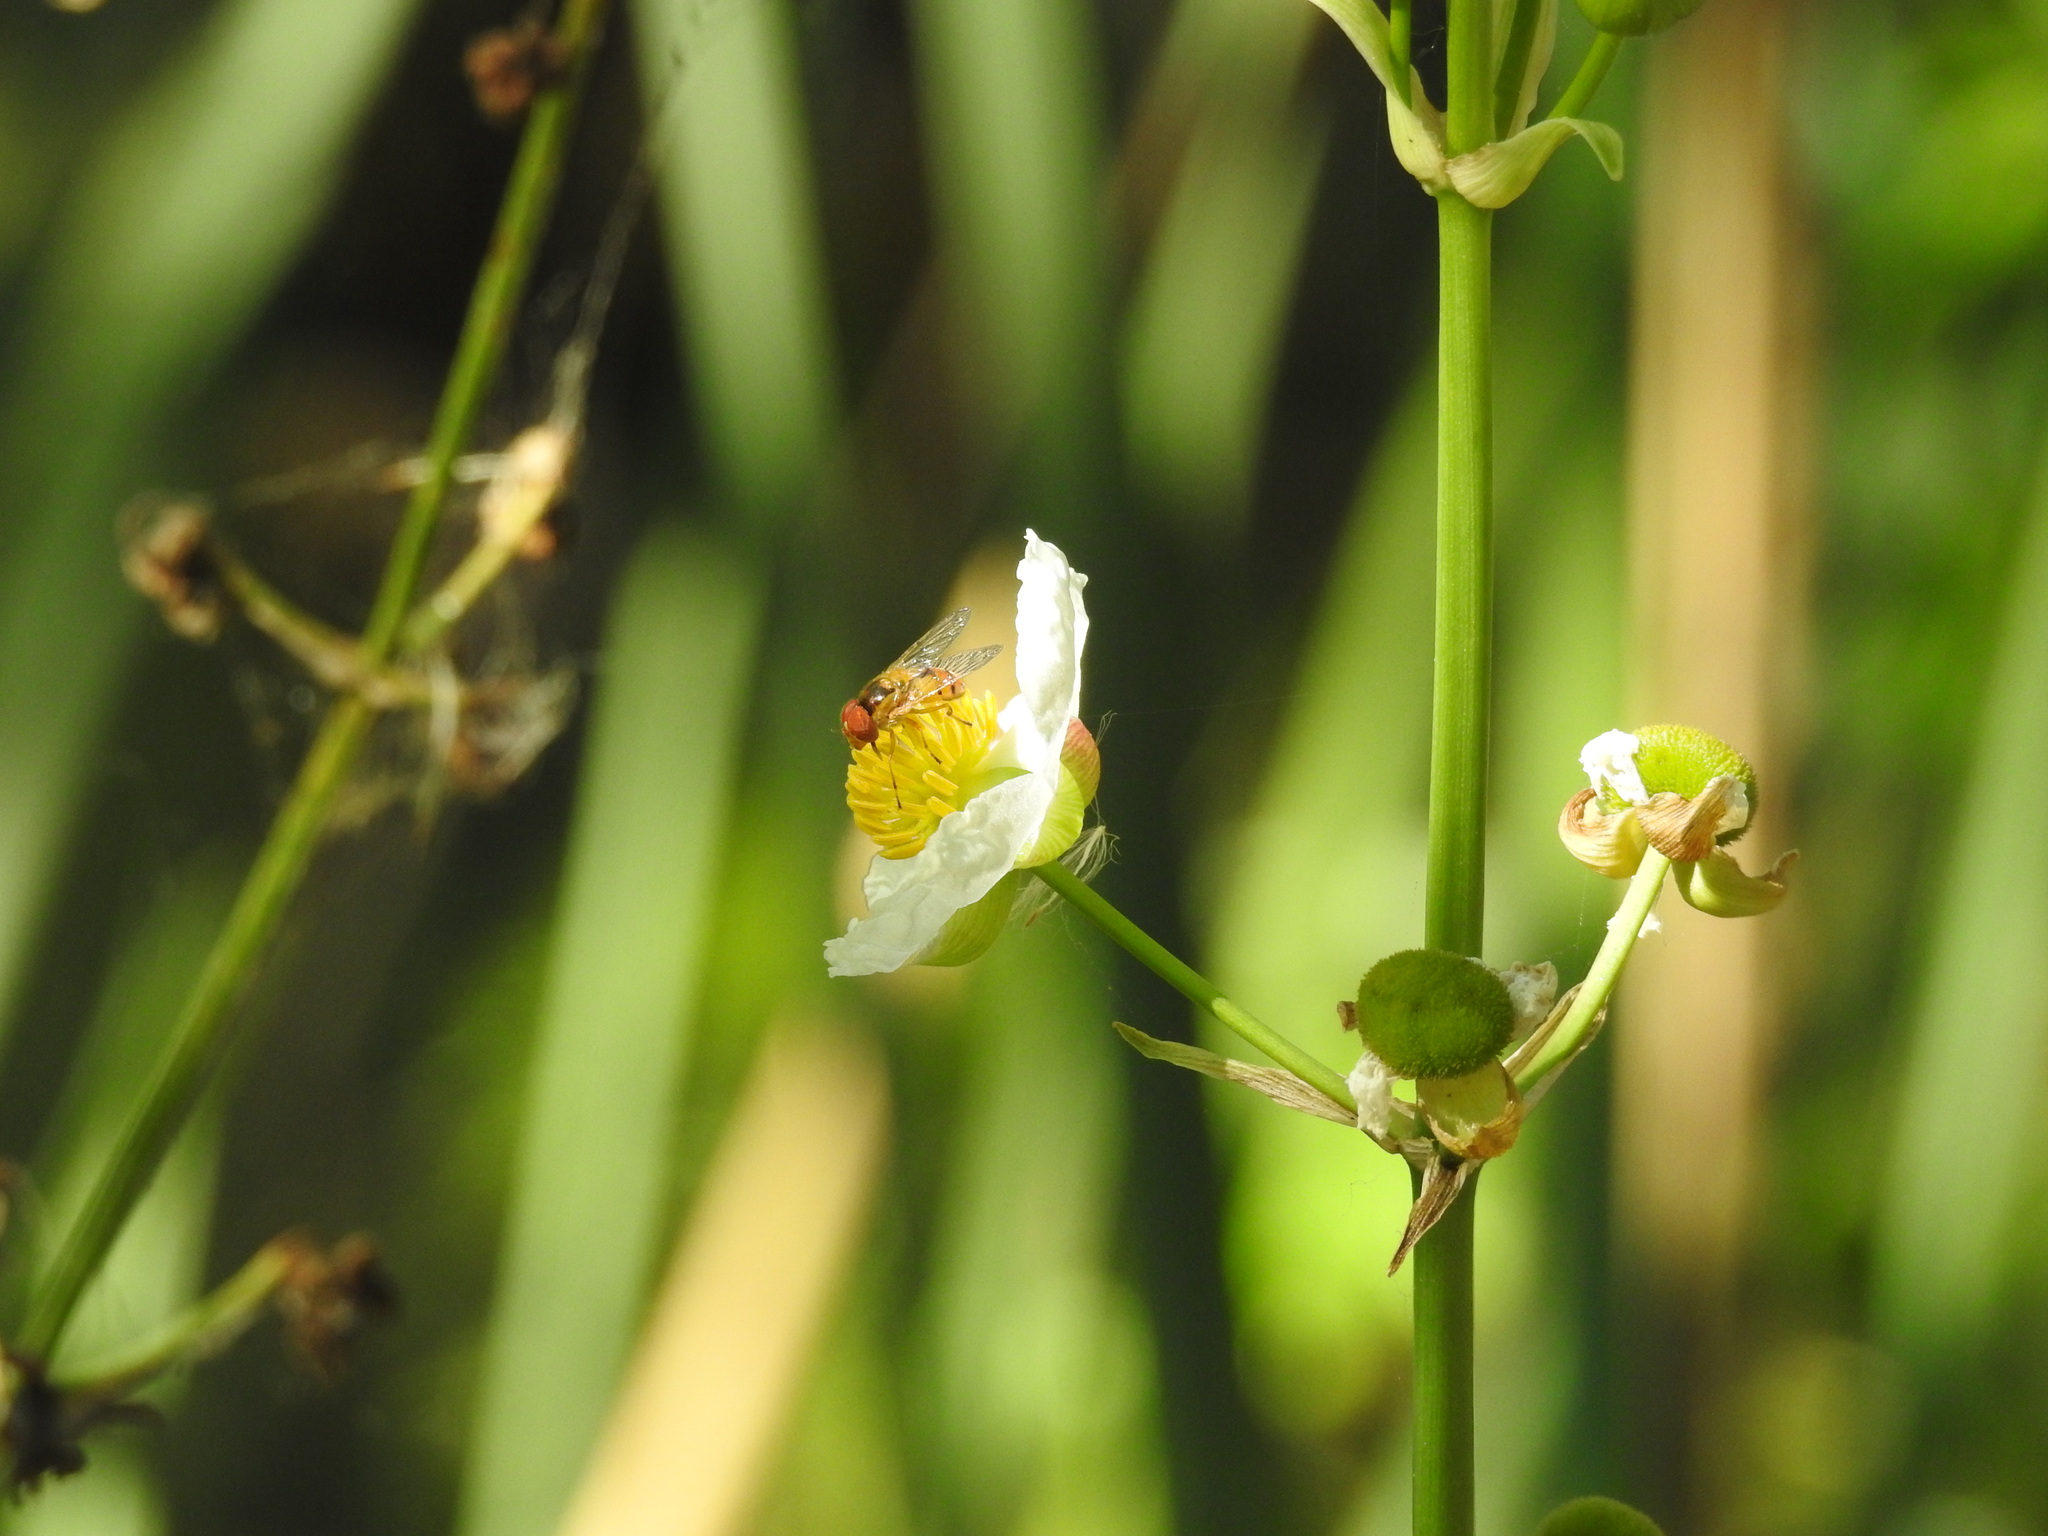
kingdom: Animalia
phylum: Arthropoda
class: Insecta
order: Diptera
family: Syrphidae
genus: Copestylum
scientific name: Copestylum sexmaculatum
